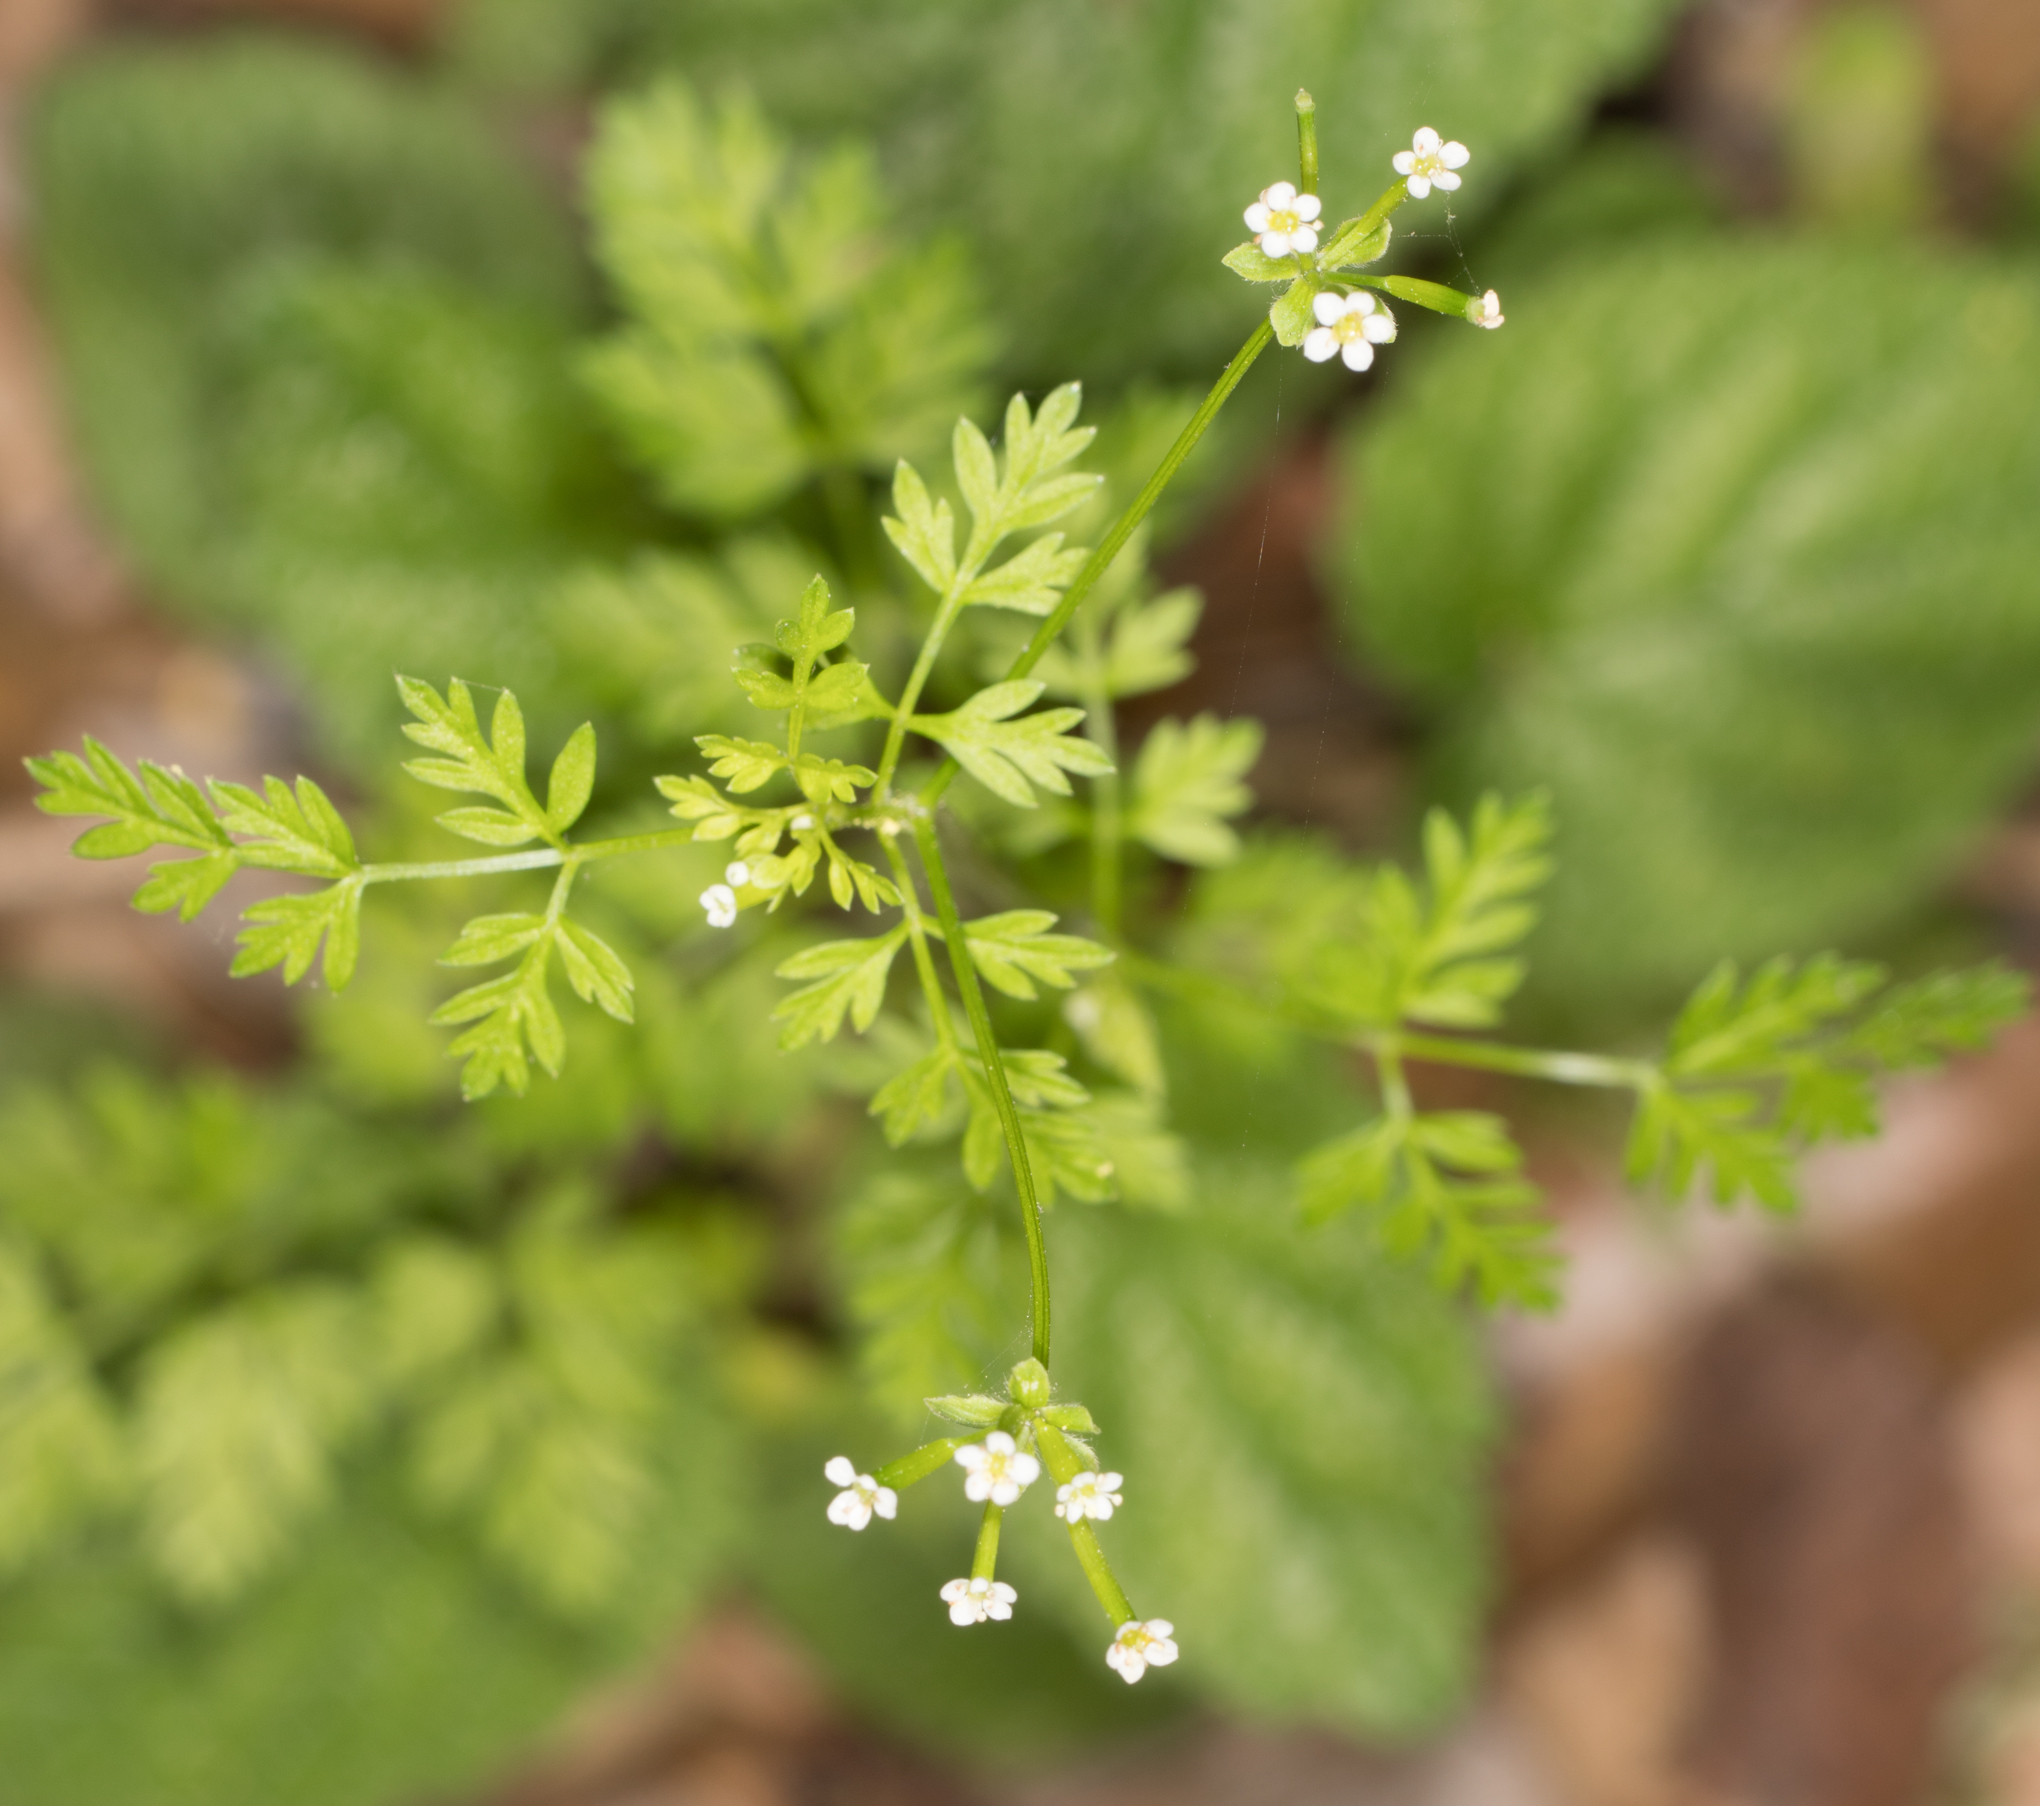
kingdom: Plantae
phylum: Tracheophyta
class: Magnoliopsida
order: Apiales
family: Apiaceae
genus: Chaerophyllum
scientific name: Chaerophyllum tainturieri
